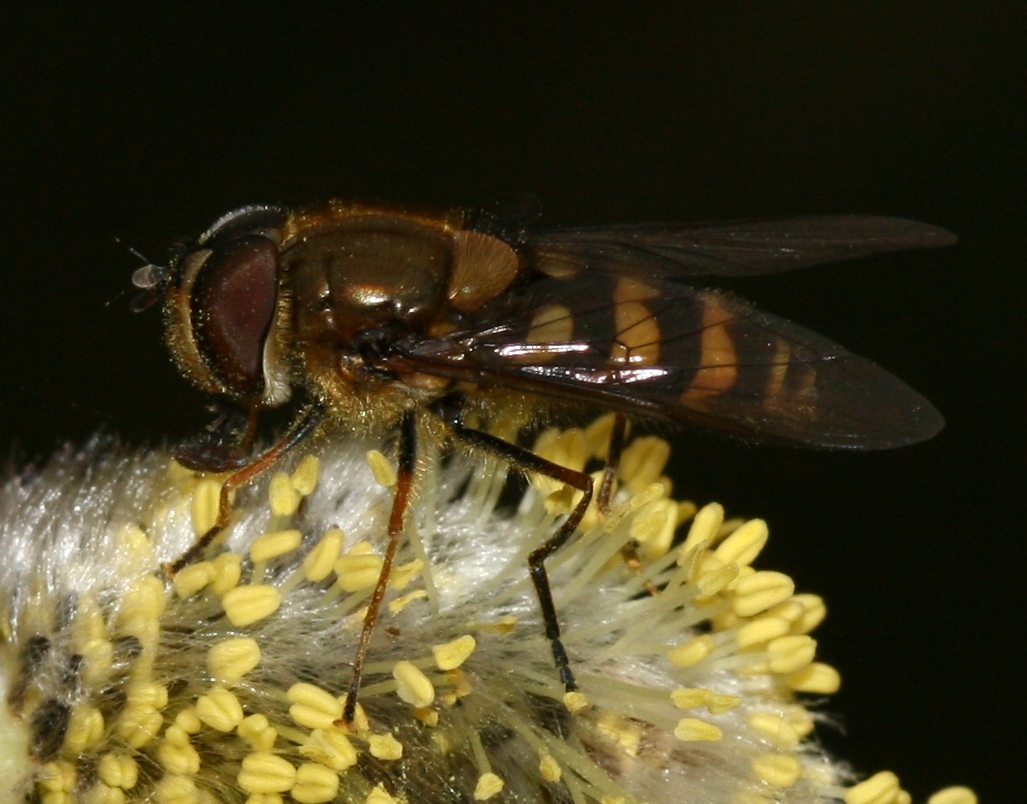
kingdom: Animalia
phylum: Arthropoda
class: Insecta
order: Diptera
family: Syrphidae
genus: Syrphus
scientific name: Syrphus torvus
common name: Hairy-eyed flower fly
